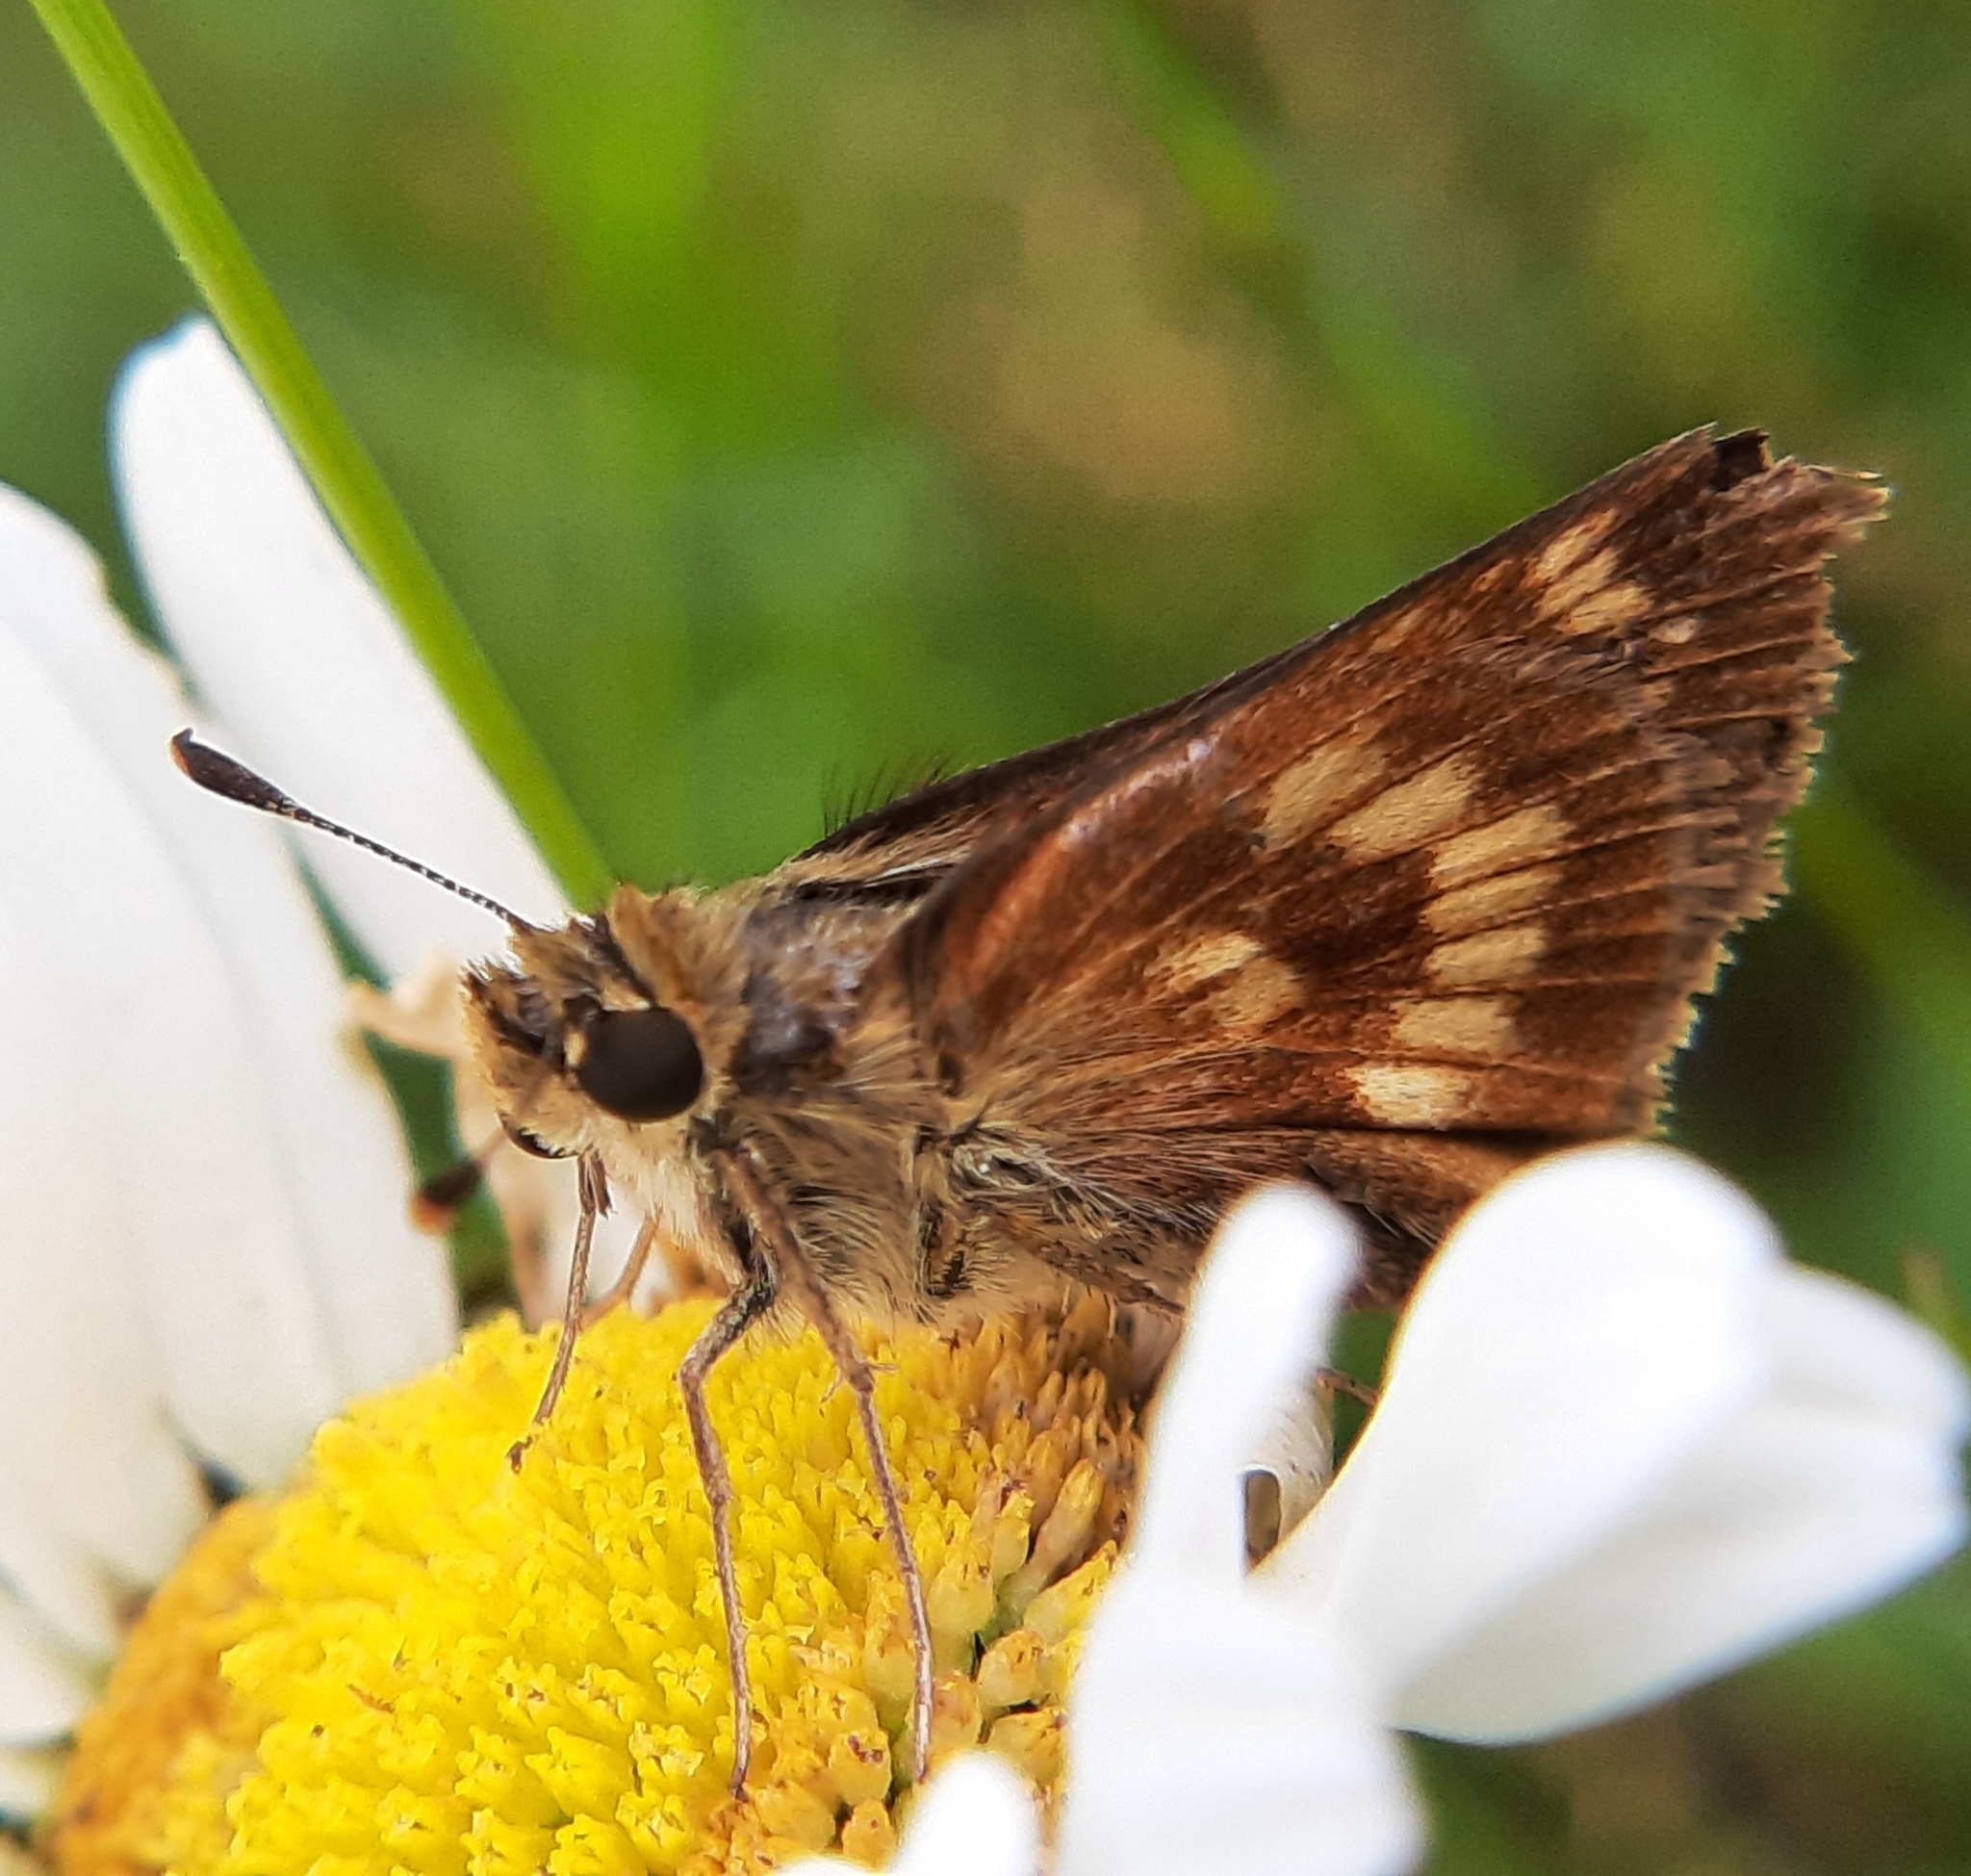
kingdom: Animalia
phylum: Arthropoda
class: Insecta
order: Lepidoptera
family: Hesperiidae
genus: Polites
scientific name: Polites mystic
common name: Long dash
